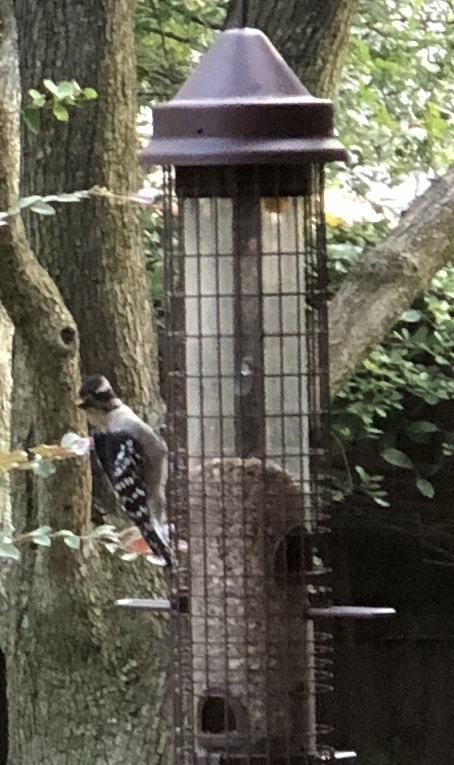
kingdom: Animalia
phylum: Chordata
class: Aves
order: Piciformes
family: Picidae
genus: Dryobates
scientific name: Dryobates pubescens
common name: Downy woodpecker
